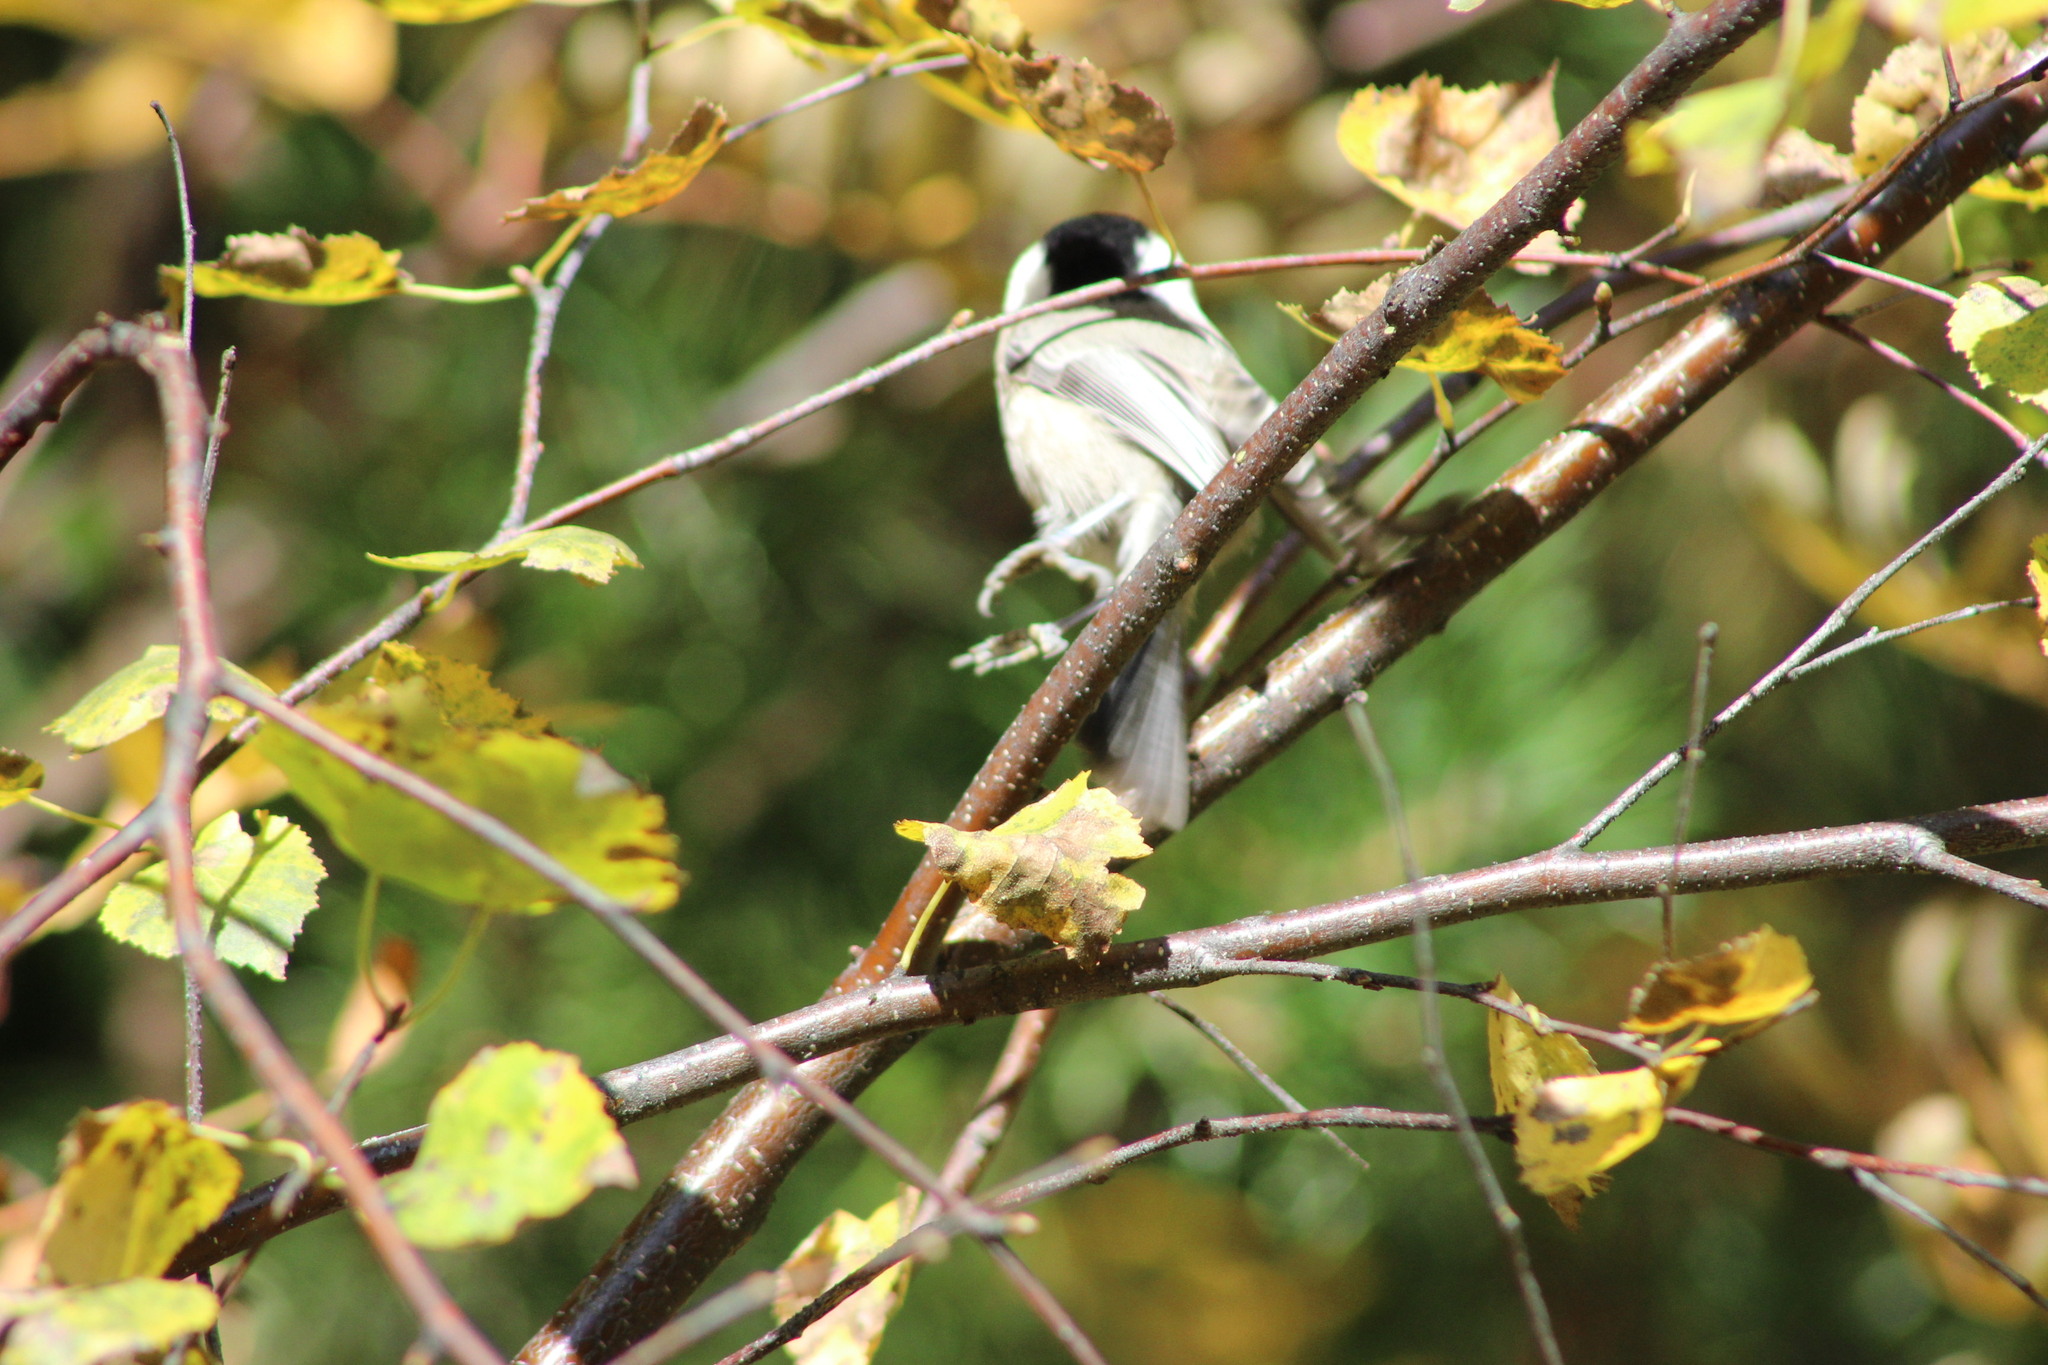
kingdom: Animalia
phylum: Chordata
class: Aves
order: Passeriformes
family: Paridae
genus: Poecile
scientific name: Poecile montanus
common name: Willow tit
